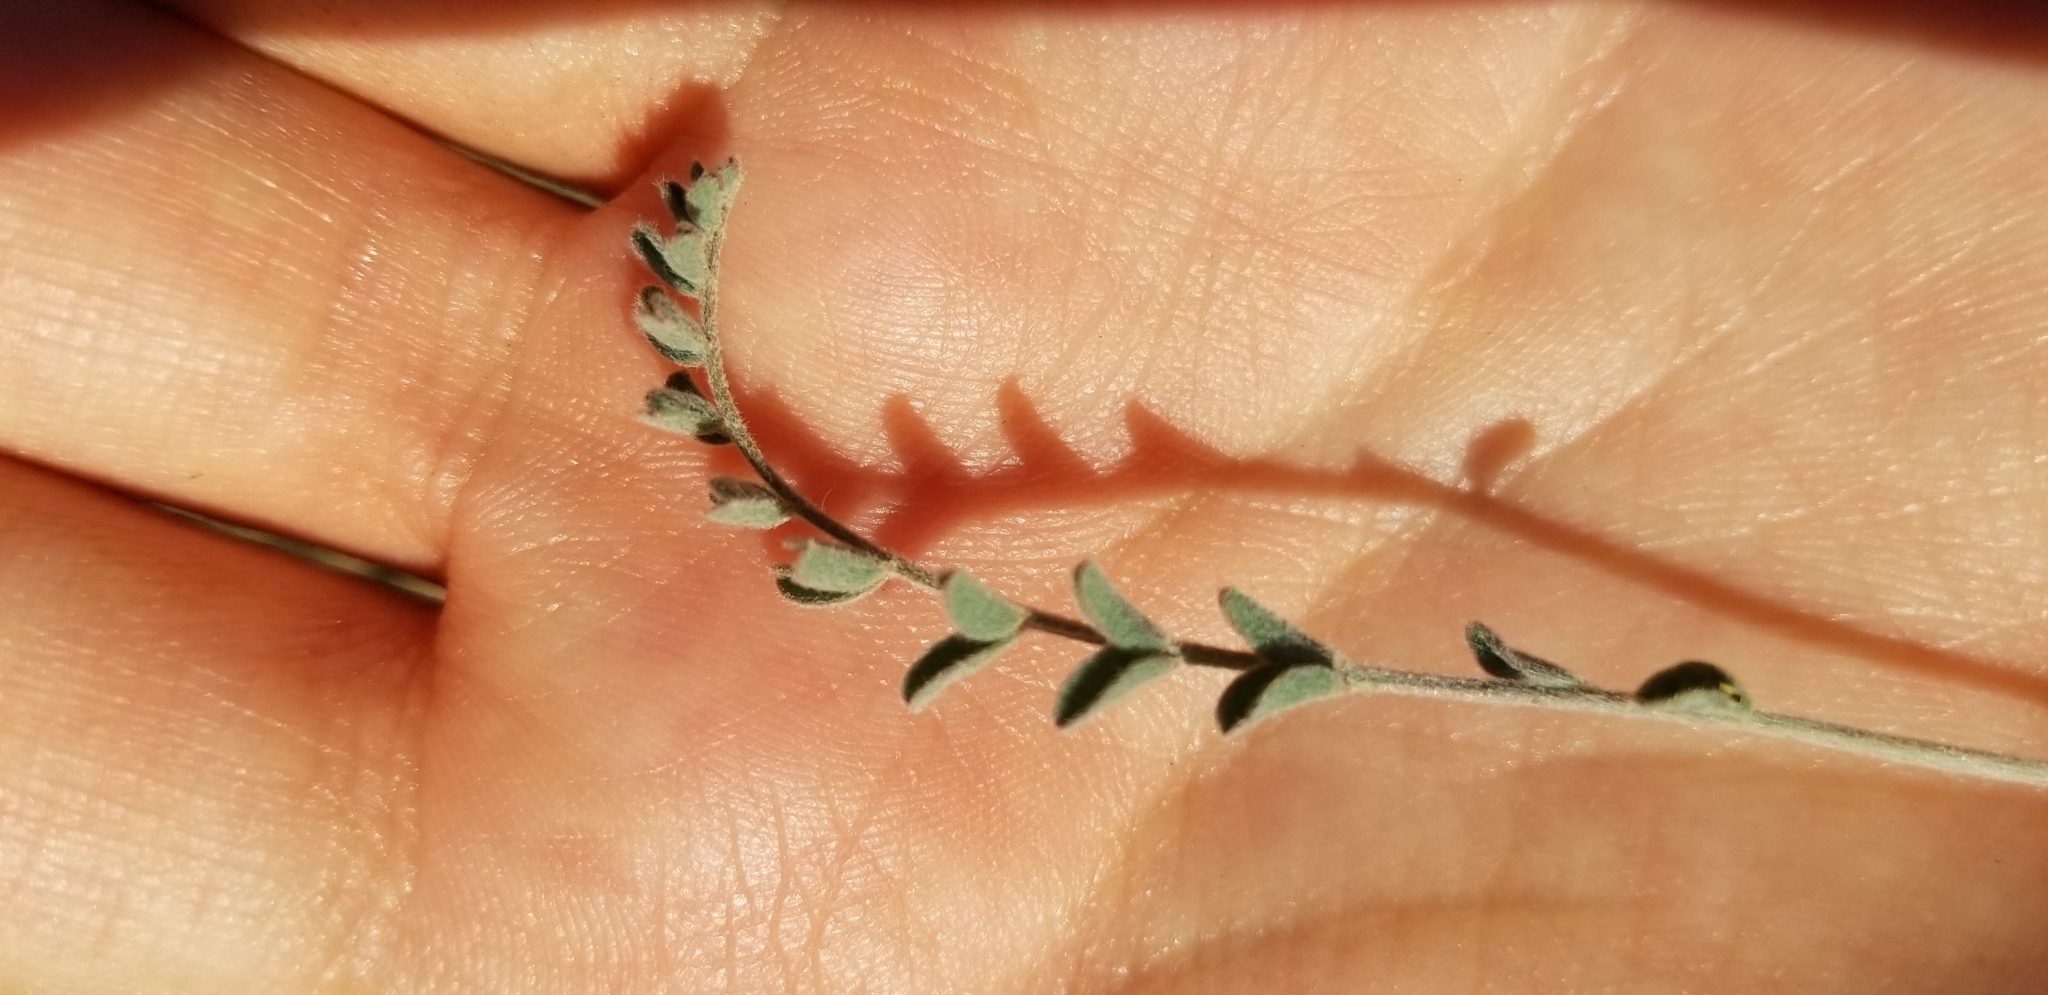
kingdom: Plantae
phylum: Tracheophyta
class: Magnoliopsida
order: Fabales
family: Fabaceae
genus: Astragalus
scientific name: Astragalus trichopodus
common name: Santa barbara milk-vetch
